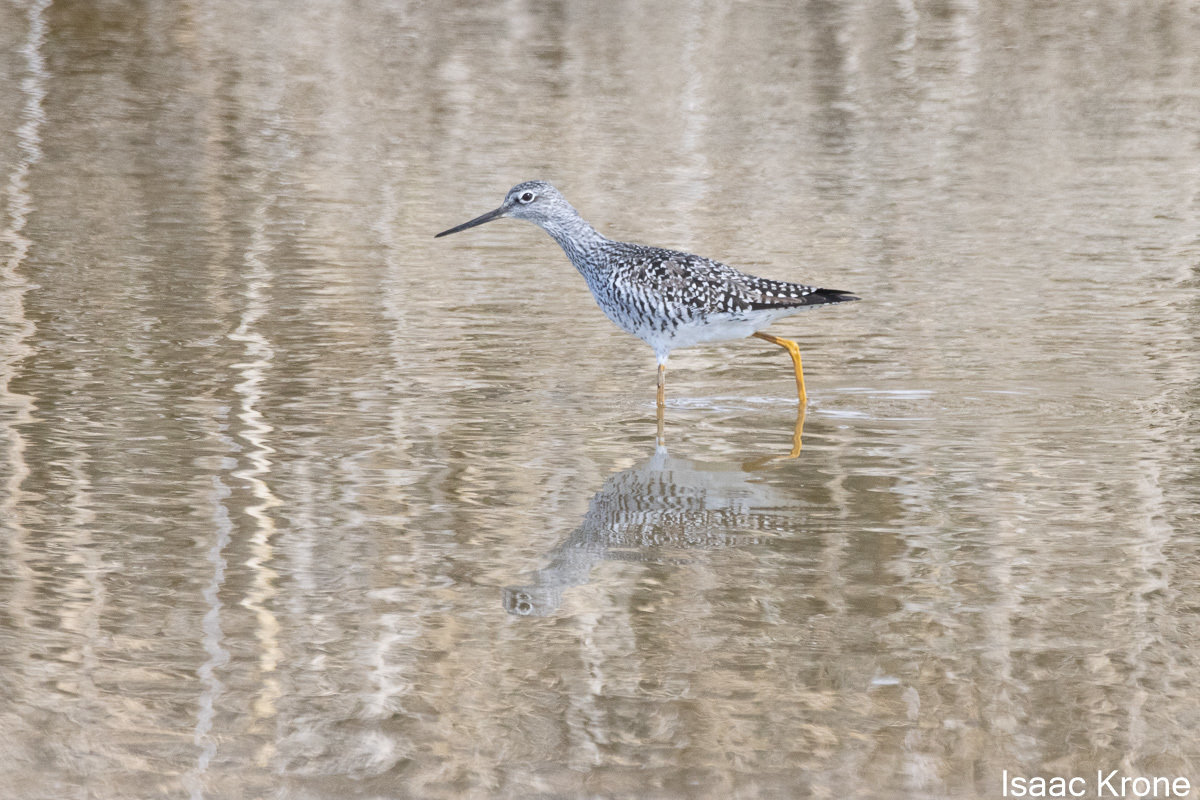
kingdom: Animalia
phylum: Chordata
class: Aves
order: Charadriiformes
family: Scolopacidae
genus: Tringa
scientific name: Tringa melanoleuca
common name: Greater yellowlegs
